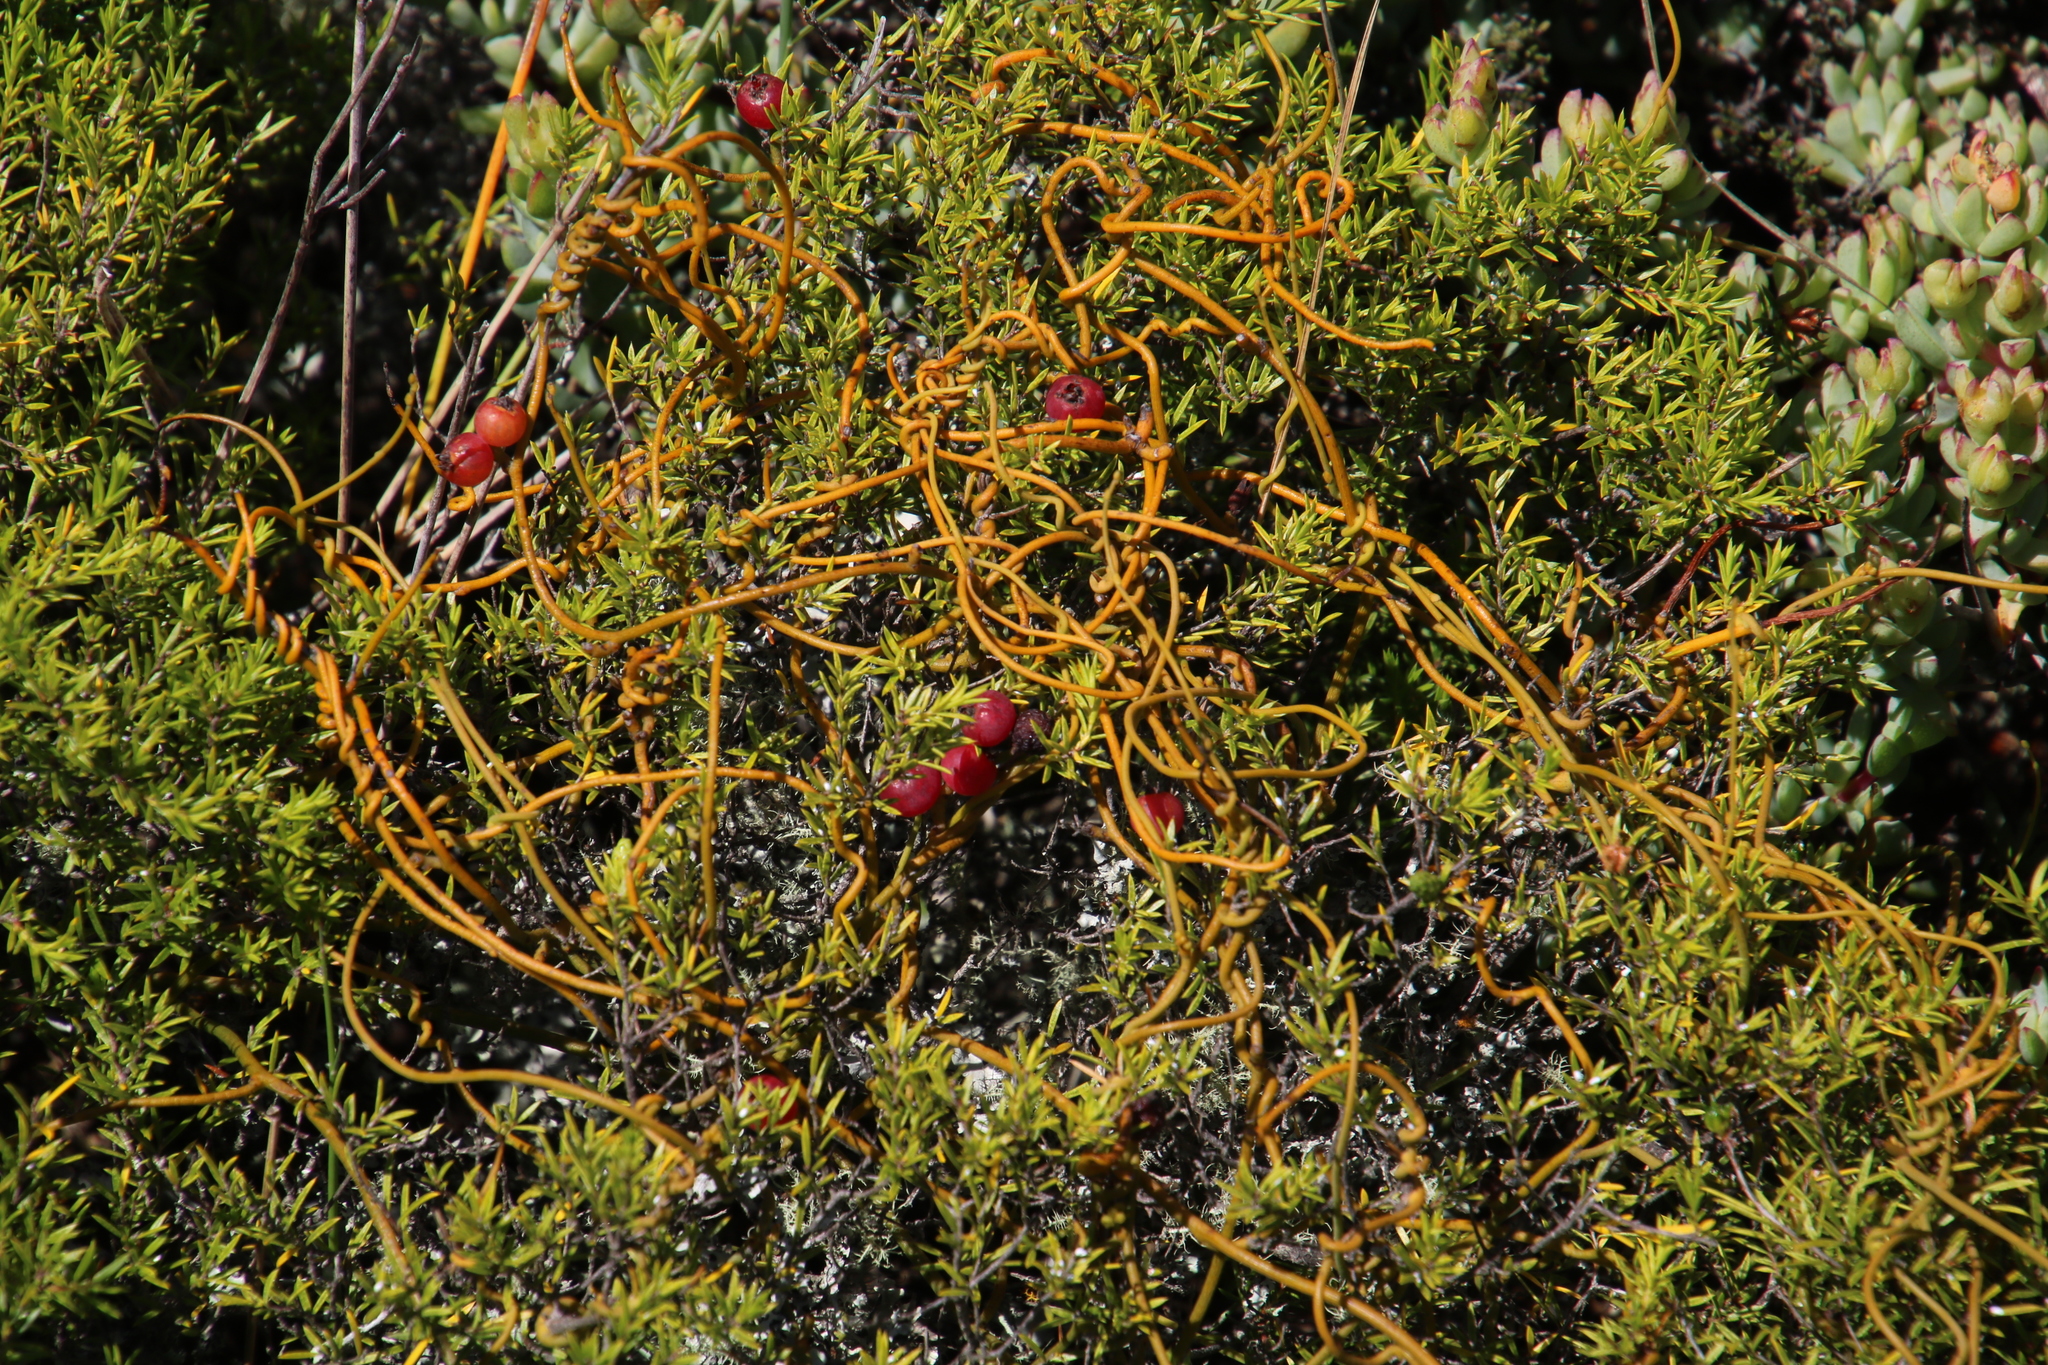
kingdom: Plantae
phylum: Tracheophyta
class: Magnoliopsida
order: Laurales
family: Lauraceae
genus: Cassytha
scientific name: Cassytha ciliolata
